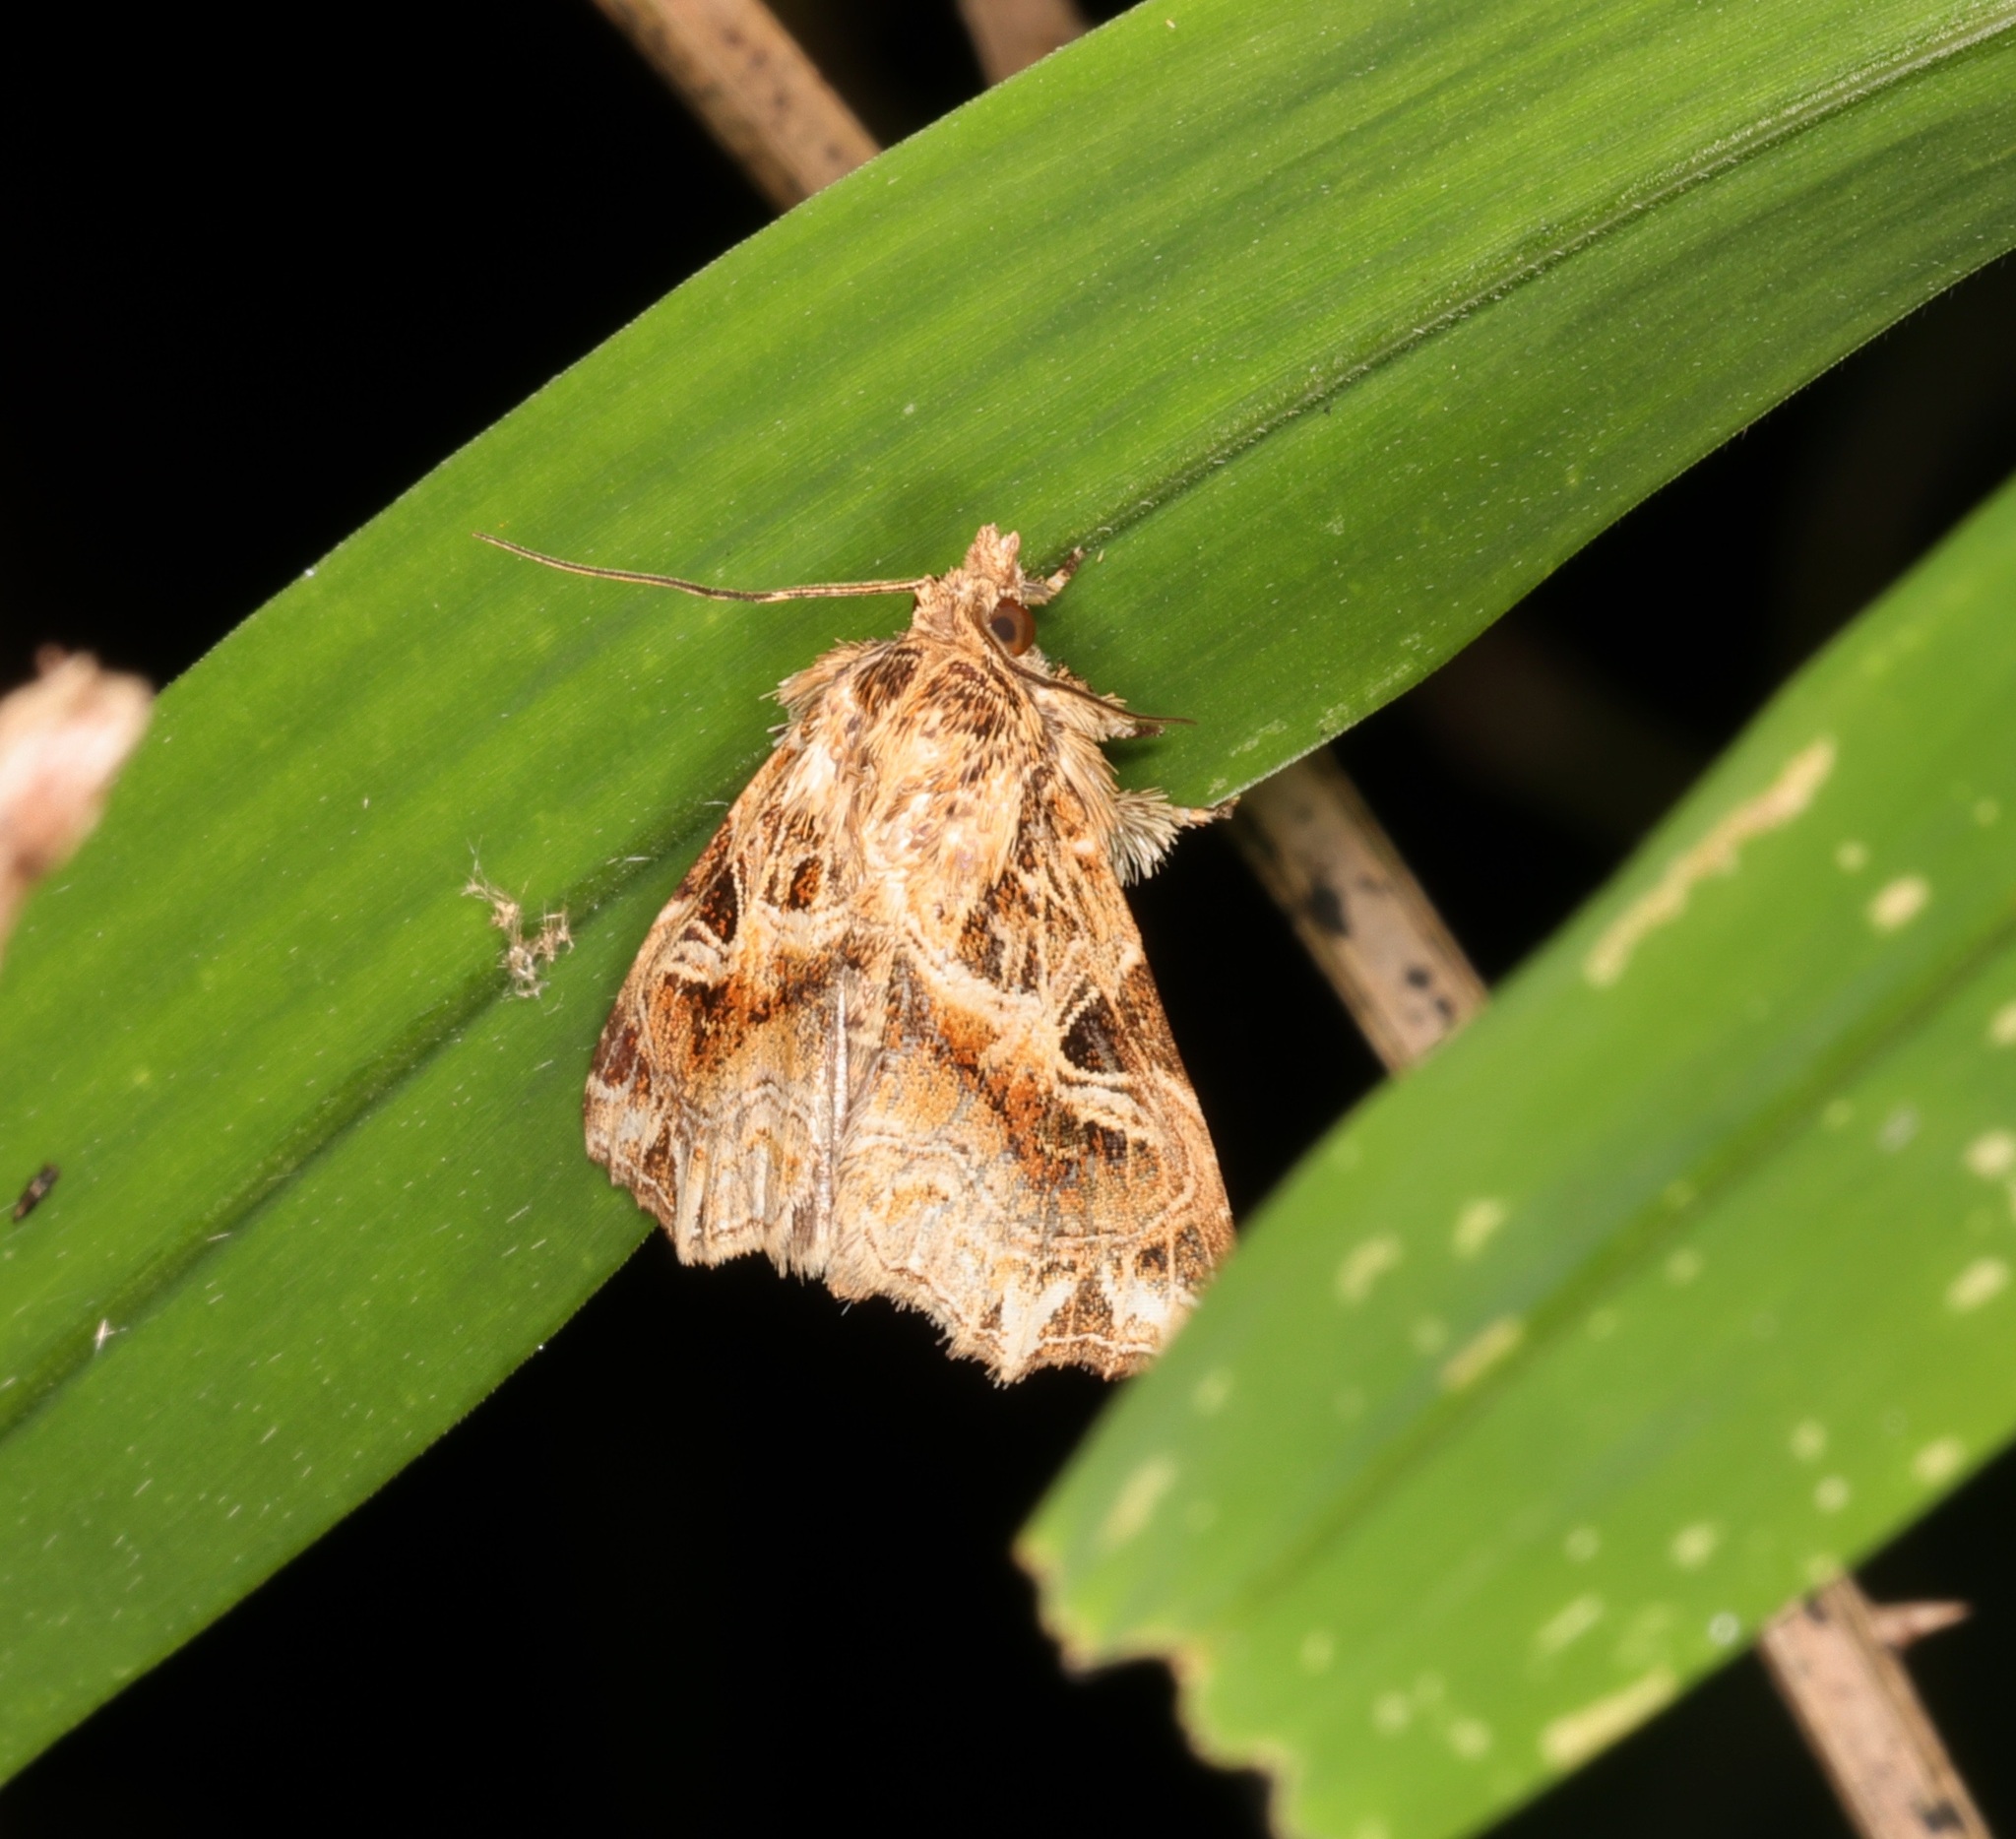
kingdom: Animalia
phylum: Arthropoda
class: Insecta
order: Lepidoptera
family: Noctuidae
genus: Callopistria
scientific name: Callopistria flavitincta
